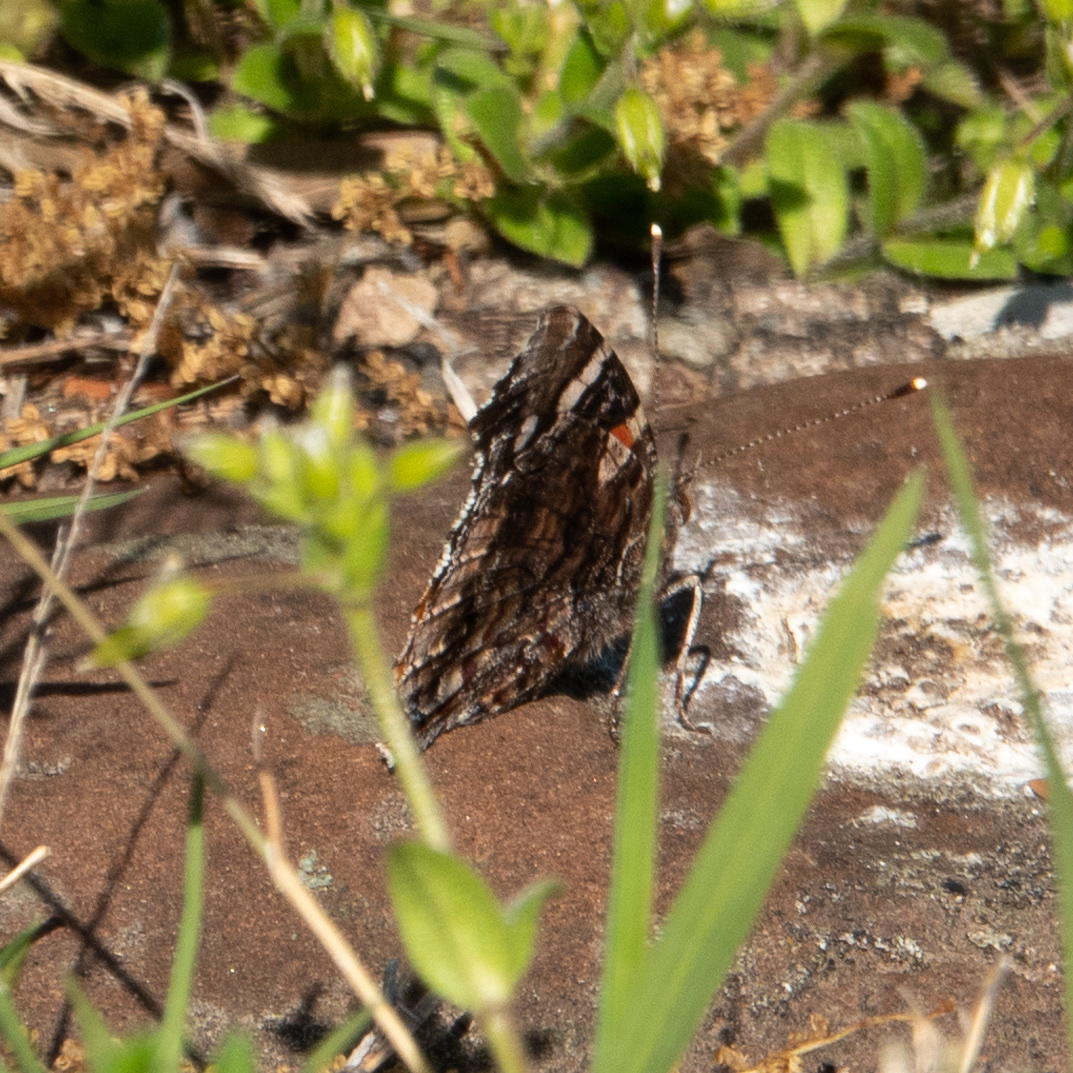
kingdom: Animalia
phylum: Arthropoda
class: Insecta
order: Lepidoptera
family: Nymphalidae
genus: Vanessa
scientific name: Vanessa atalanta
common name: Red admiral
